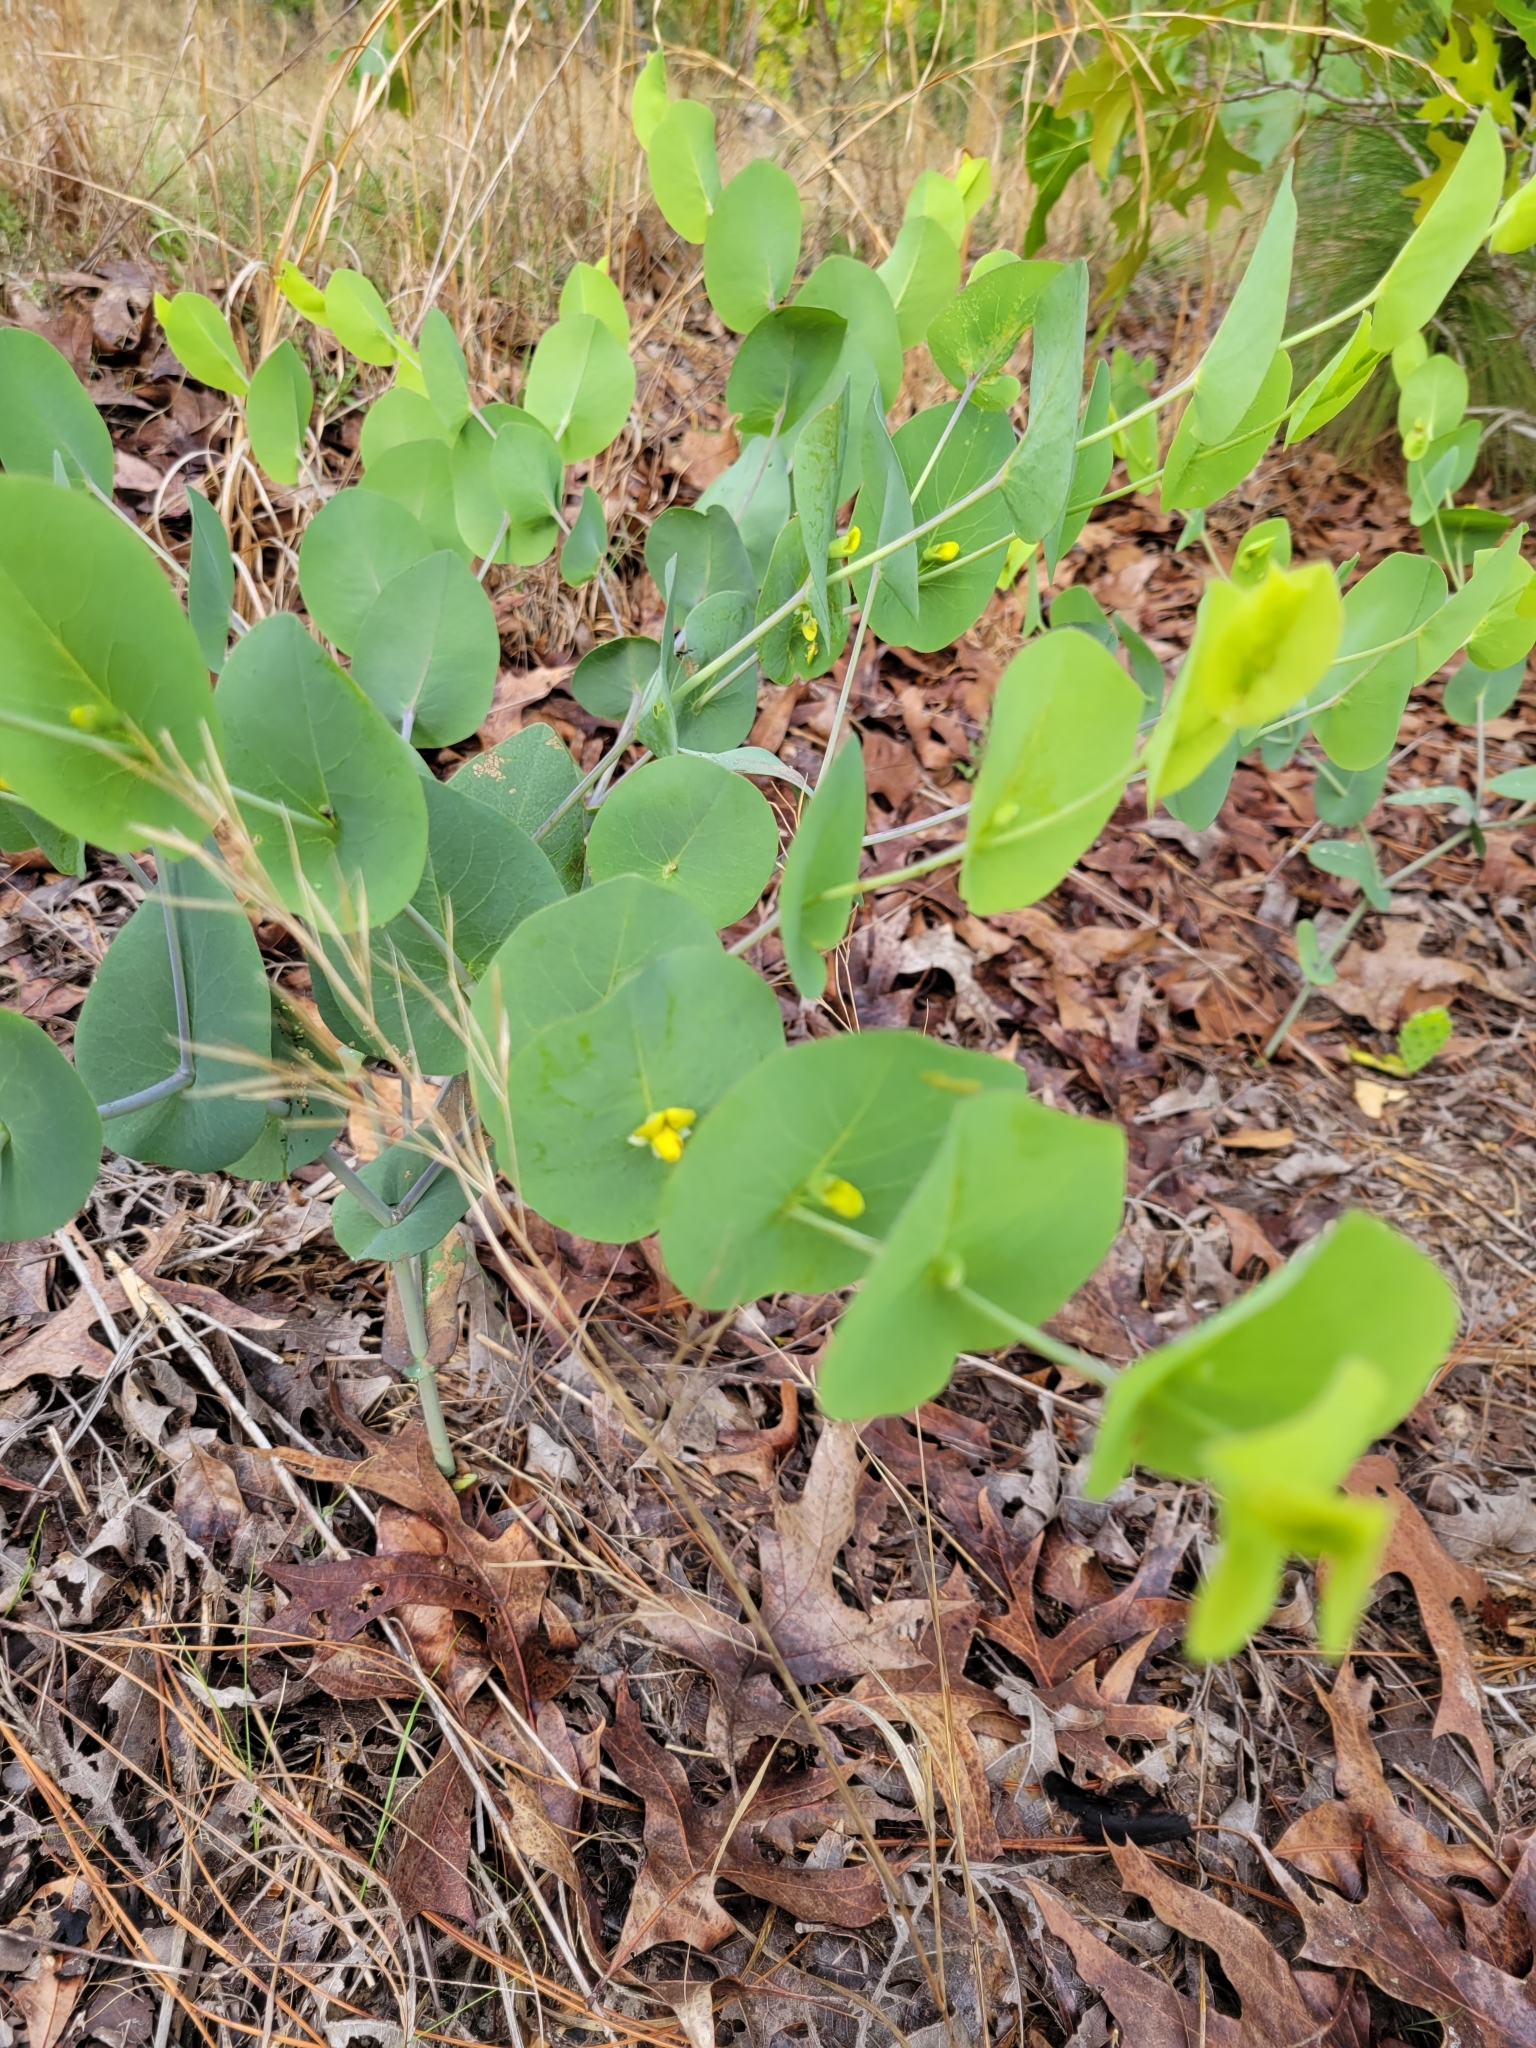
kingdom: Plantae
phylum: Tracheophyta
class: Magnoliopsida
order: Fabales
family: Fabaceae
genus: Baptisia
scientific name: Baptisia perfoliata
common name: Catbells
